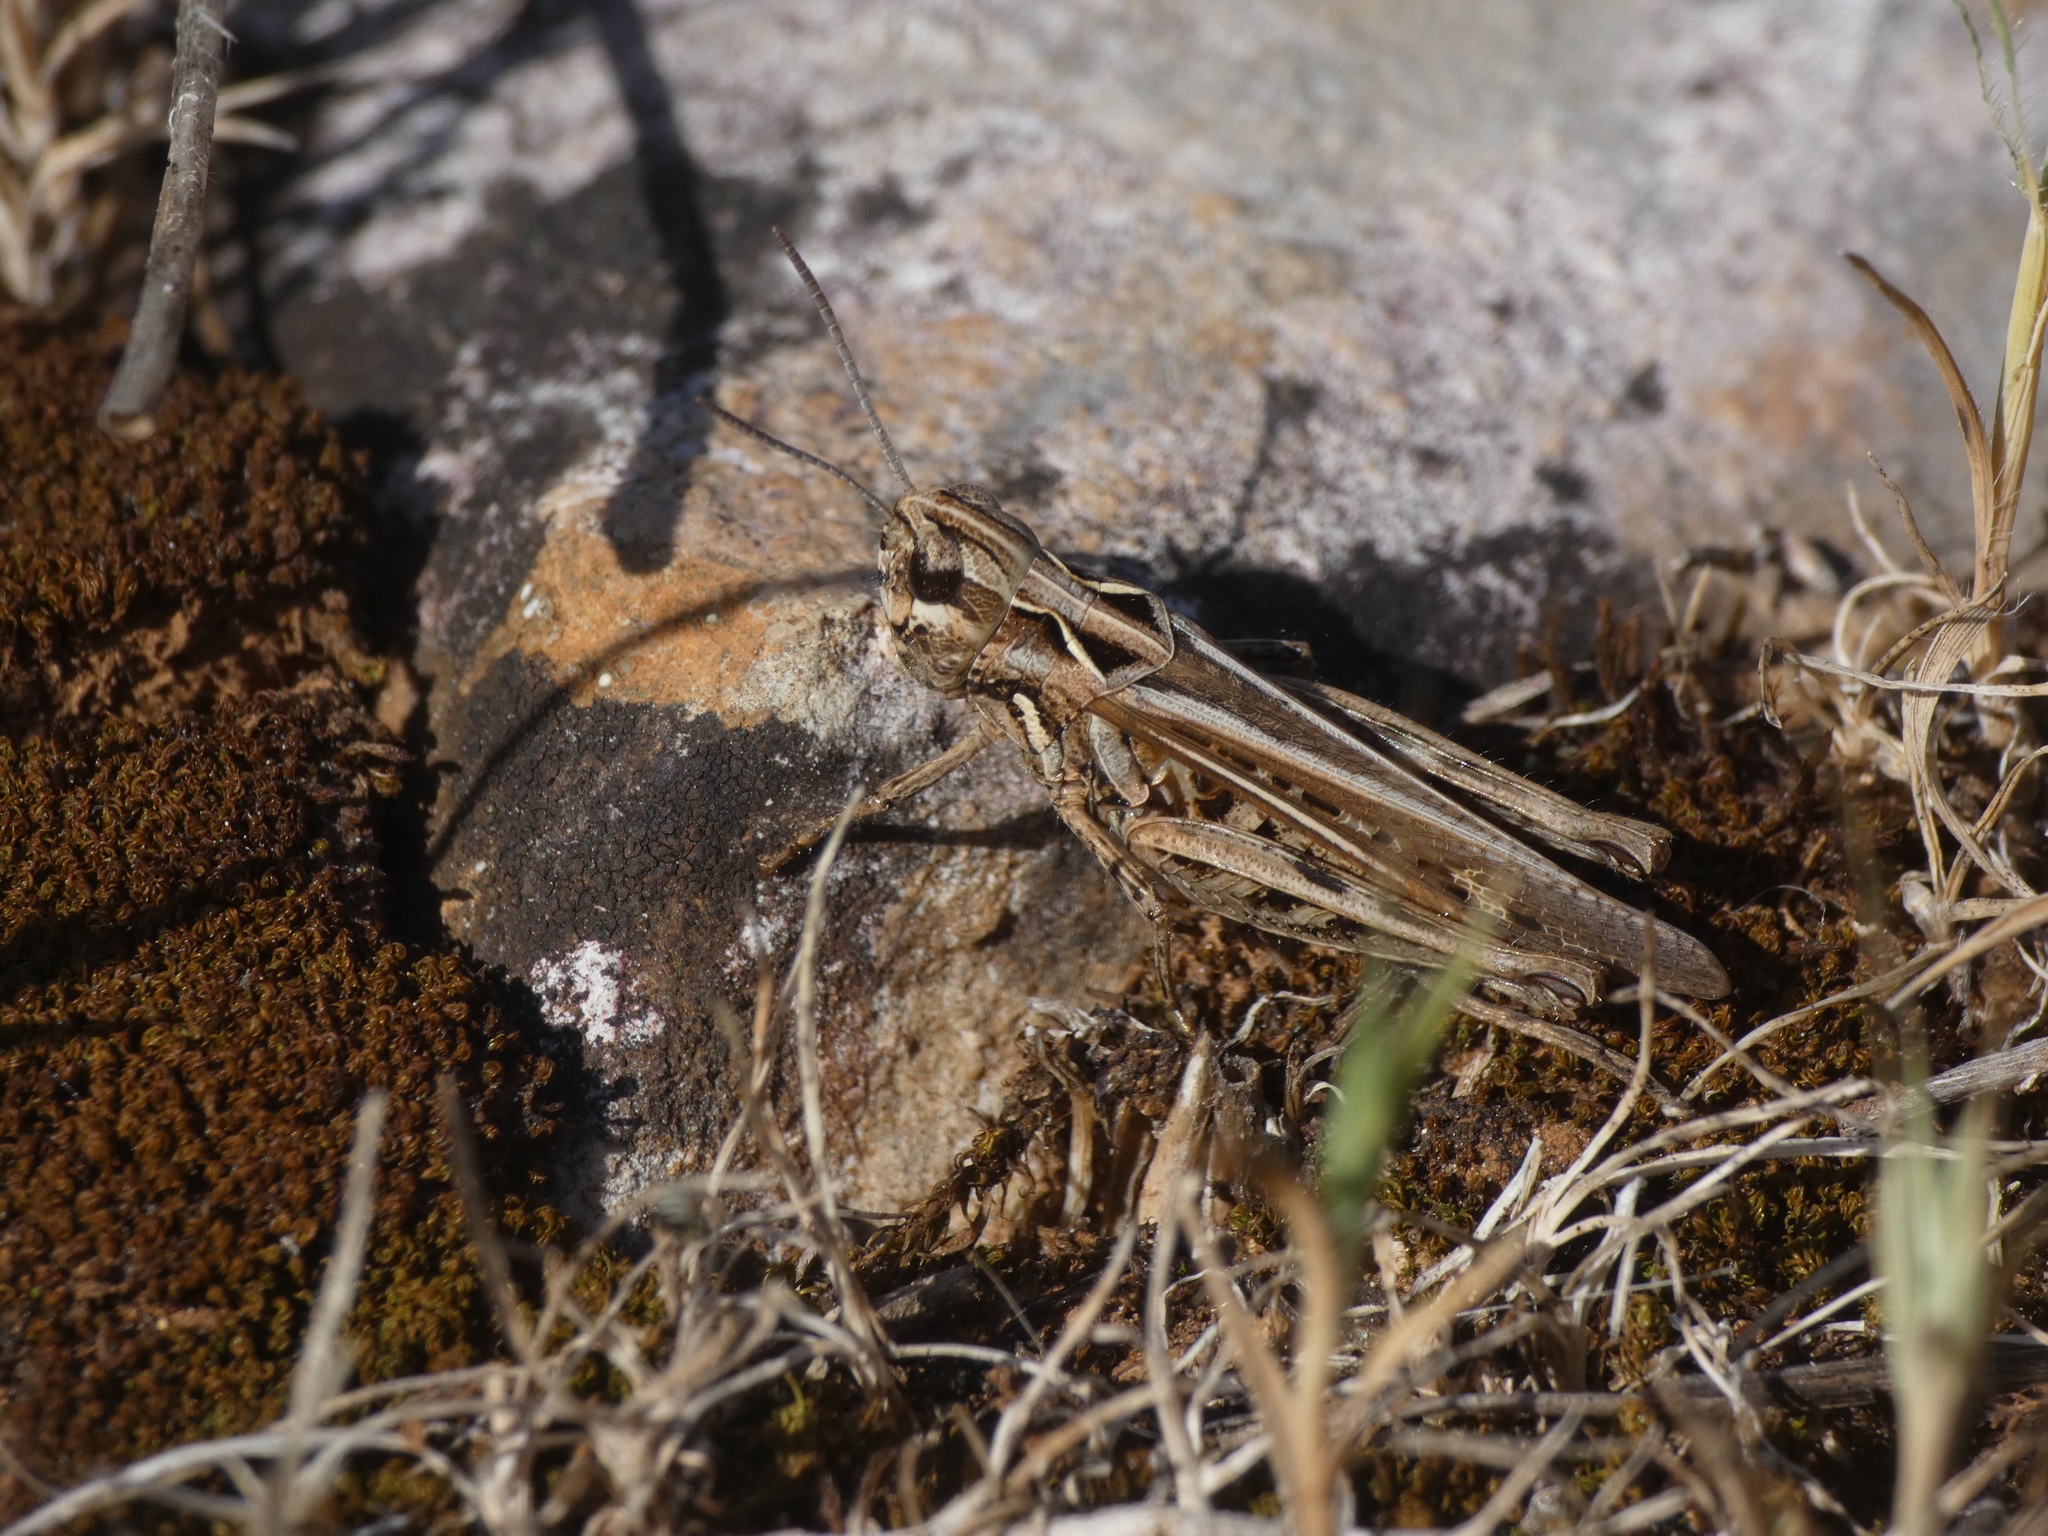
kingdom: Animalia
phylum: Arthropoda
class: Insecta
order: Orthoptera
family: Acrididae
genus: Omocestus
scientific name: Omocestus raymondi
